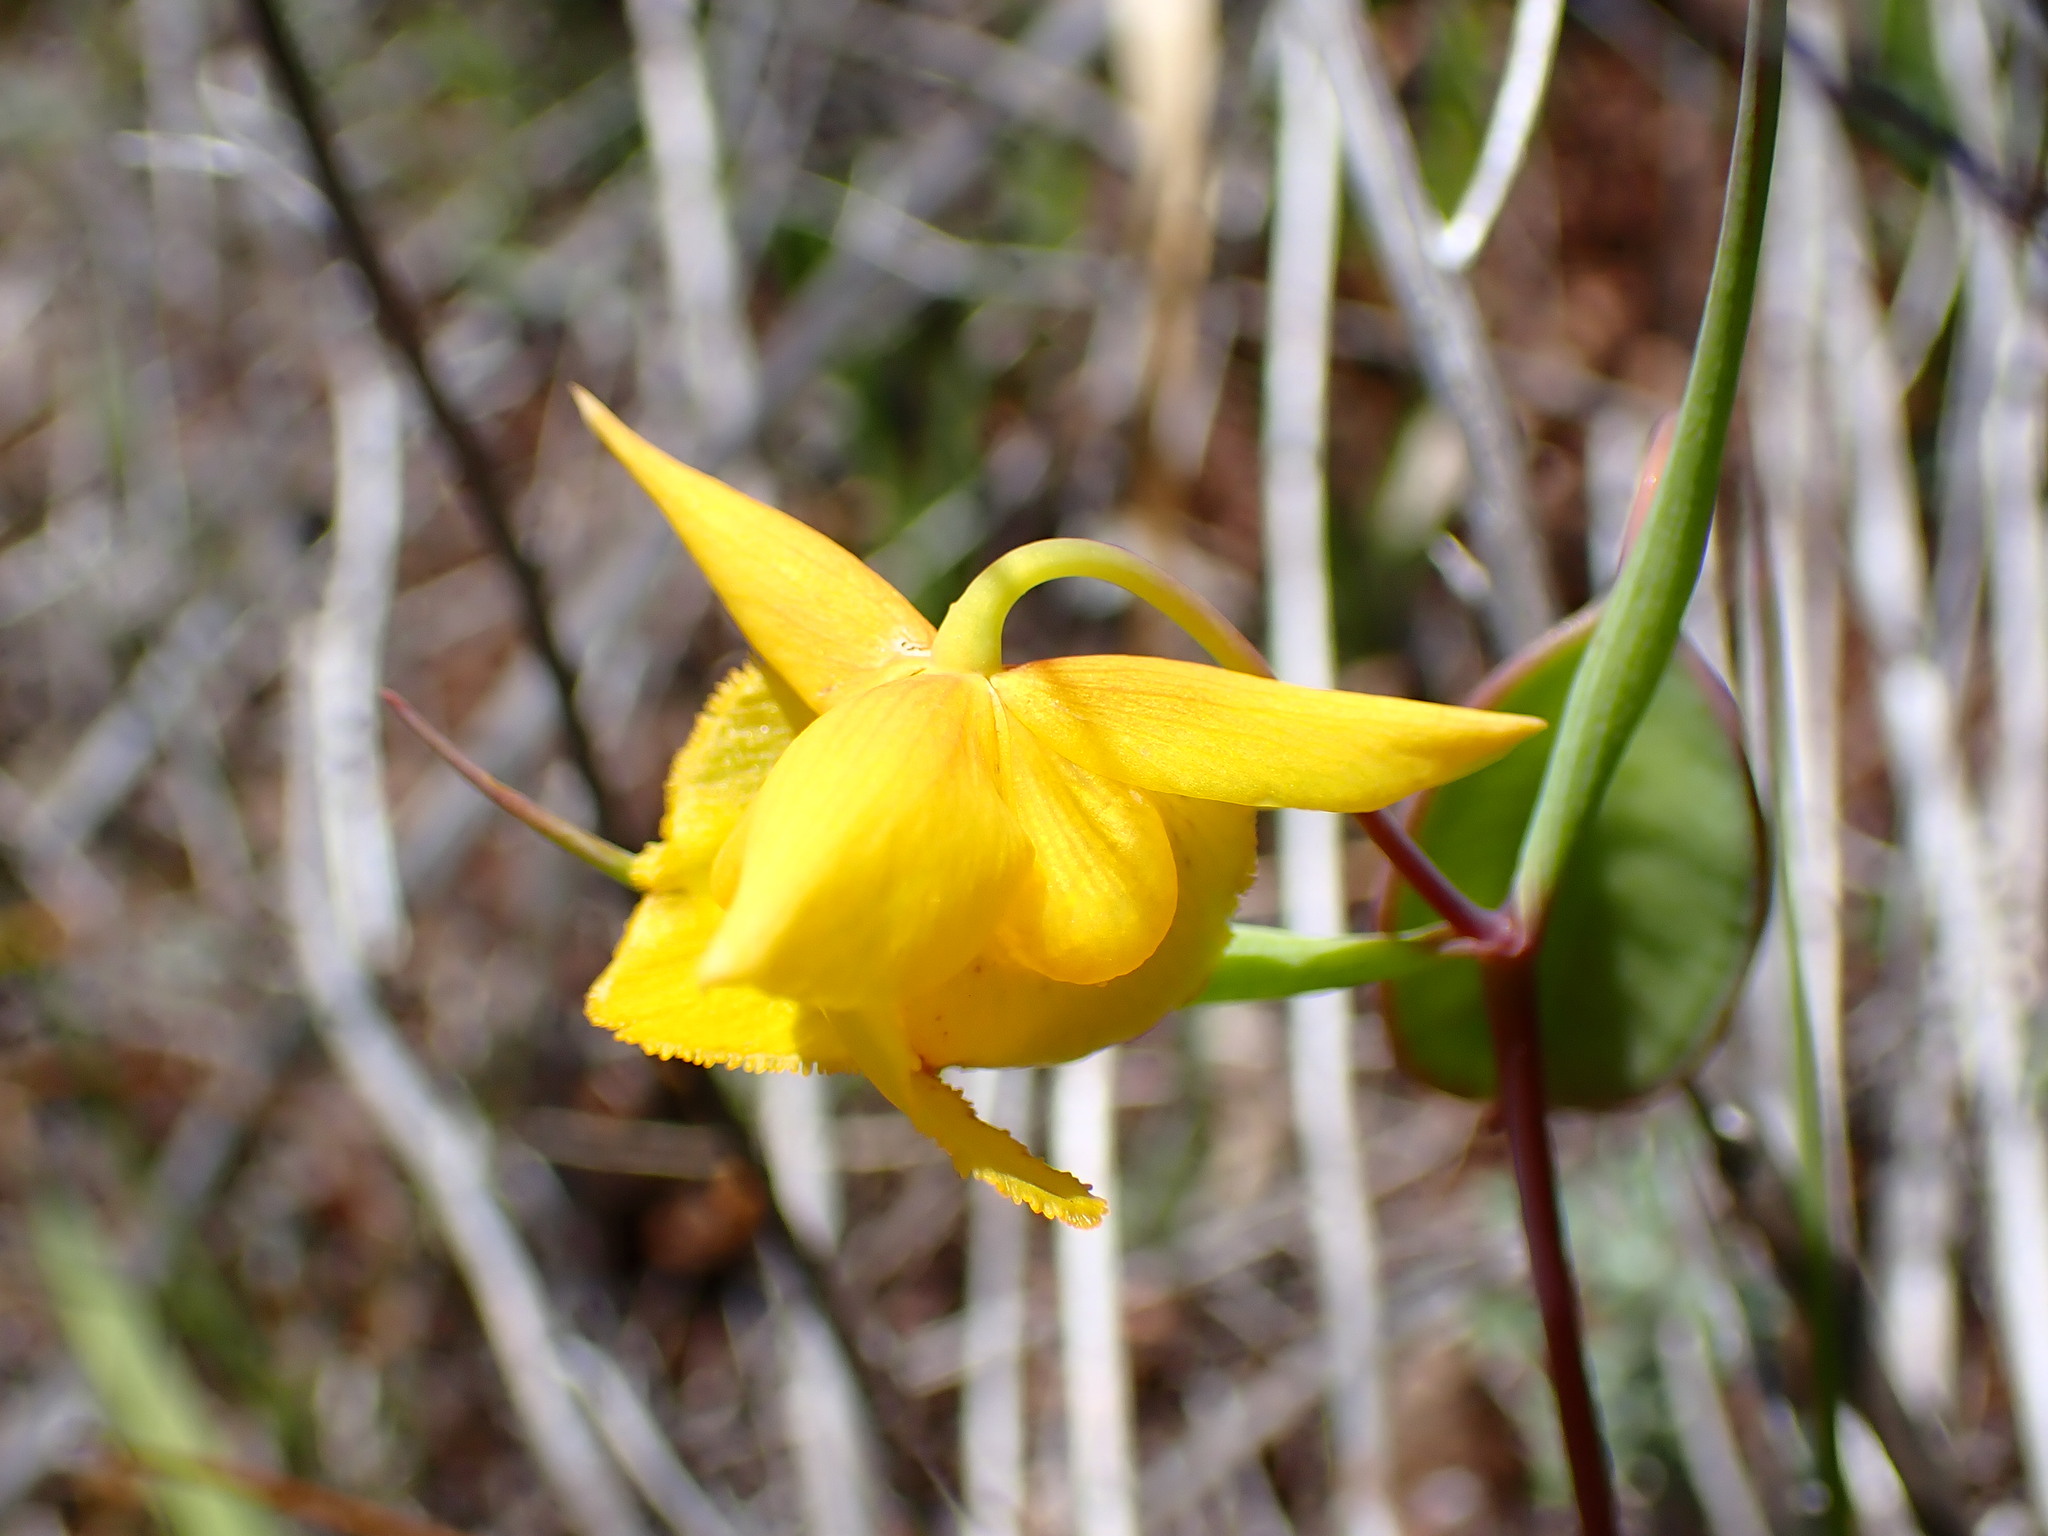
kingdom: Plantae
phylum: Tracheophyta
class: Liliopsida
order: Liliales
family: Liliaceae
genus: Calochortus
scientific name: Calochortus amabilis
